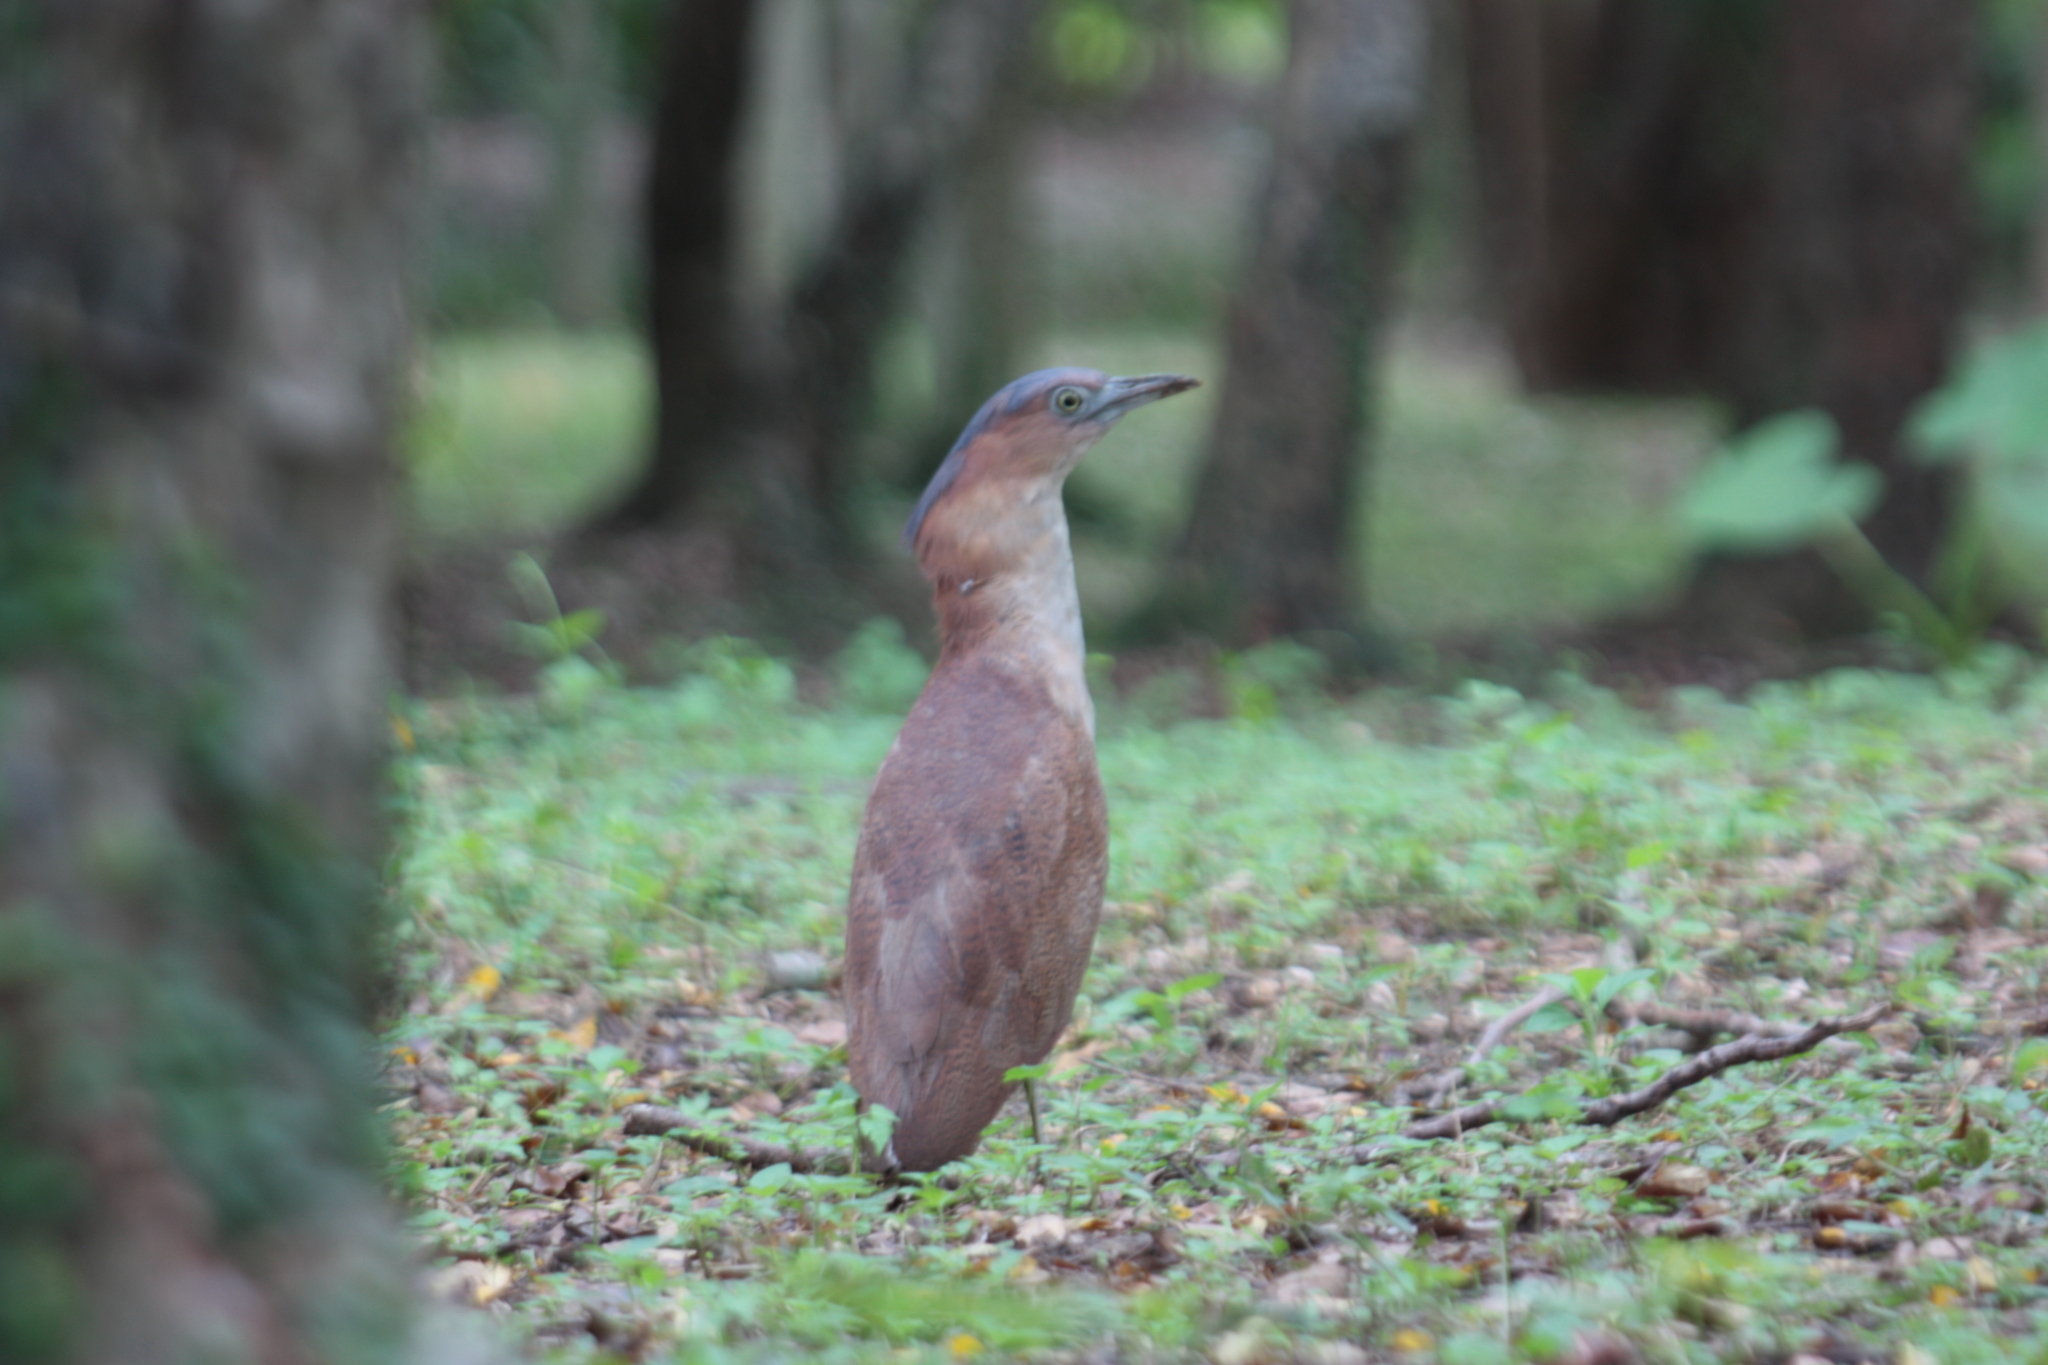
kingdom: Animalia
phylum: Chordata
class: Aves
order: Pelecaniformes
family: Ardeidae
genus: Gorsachius
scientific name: Gorsachius melanolophus
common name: Malayan night heron
